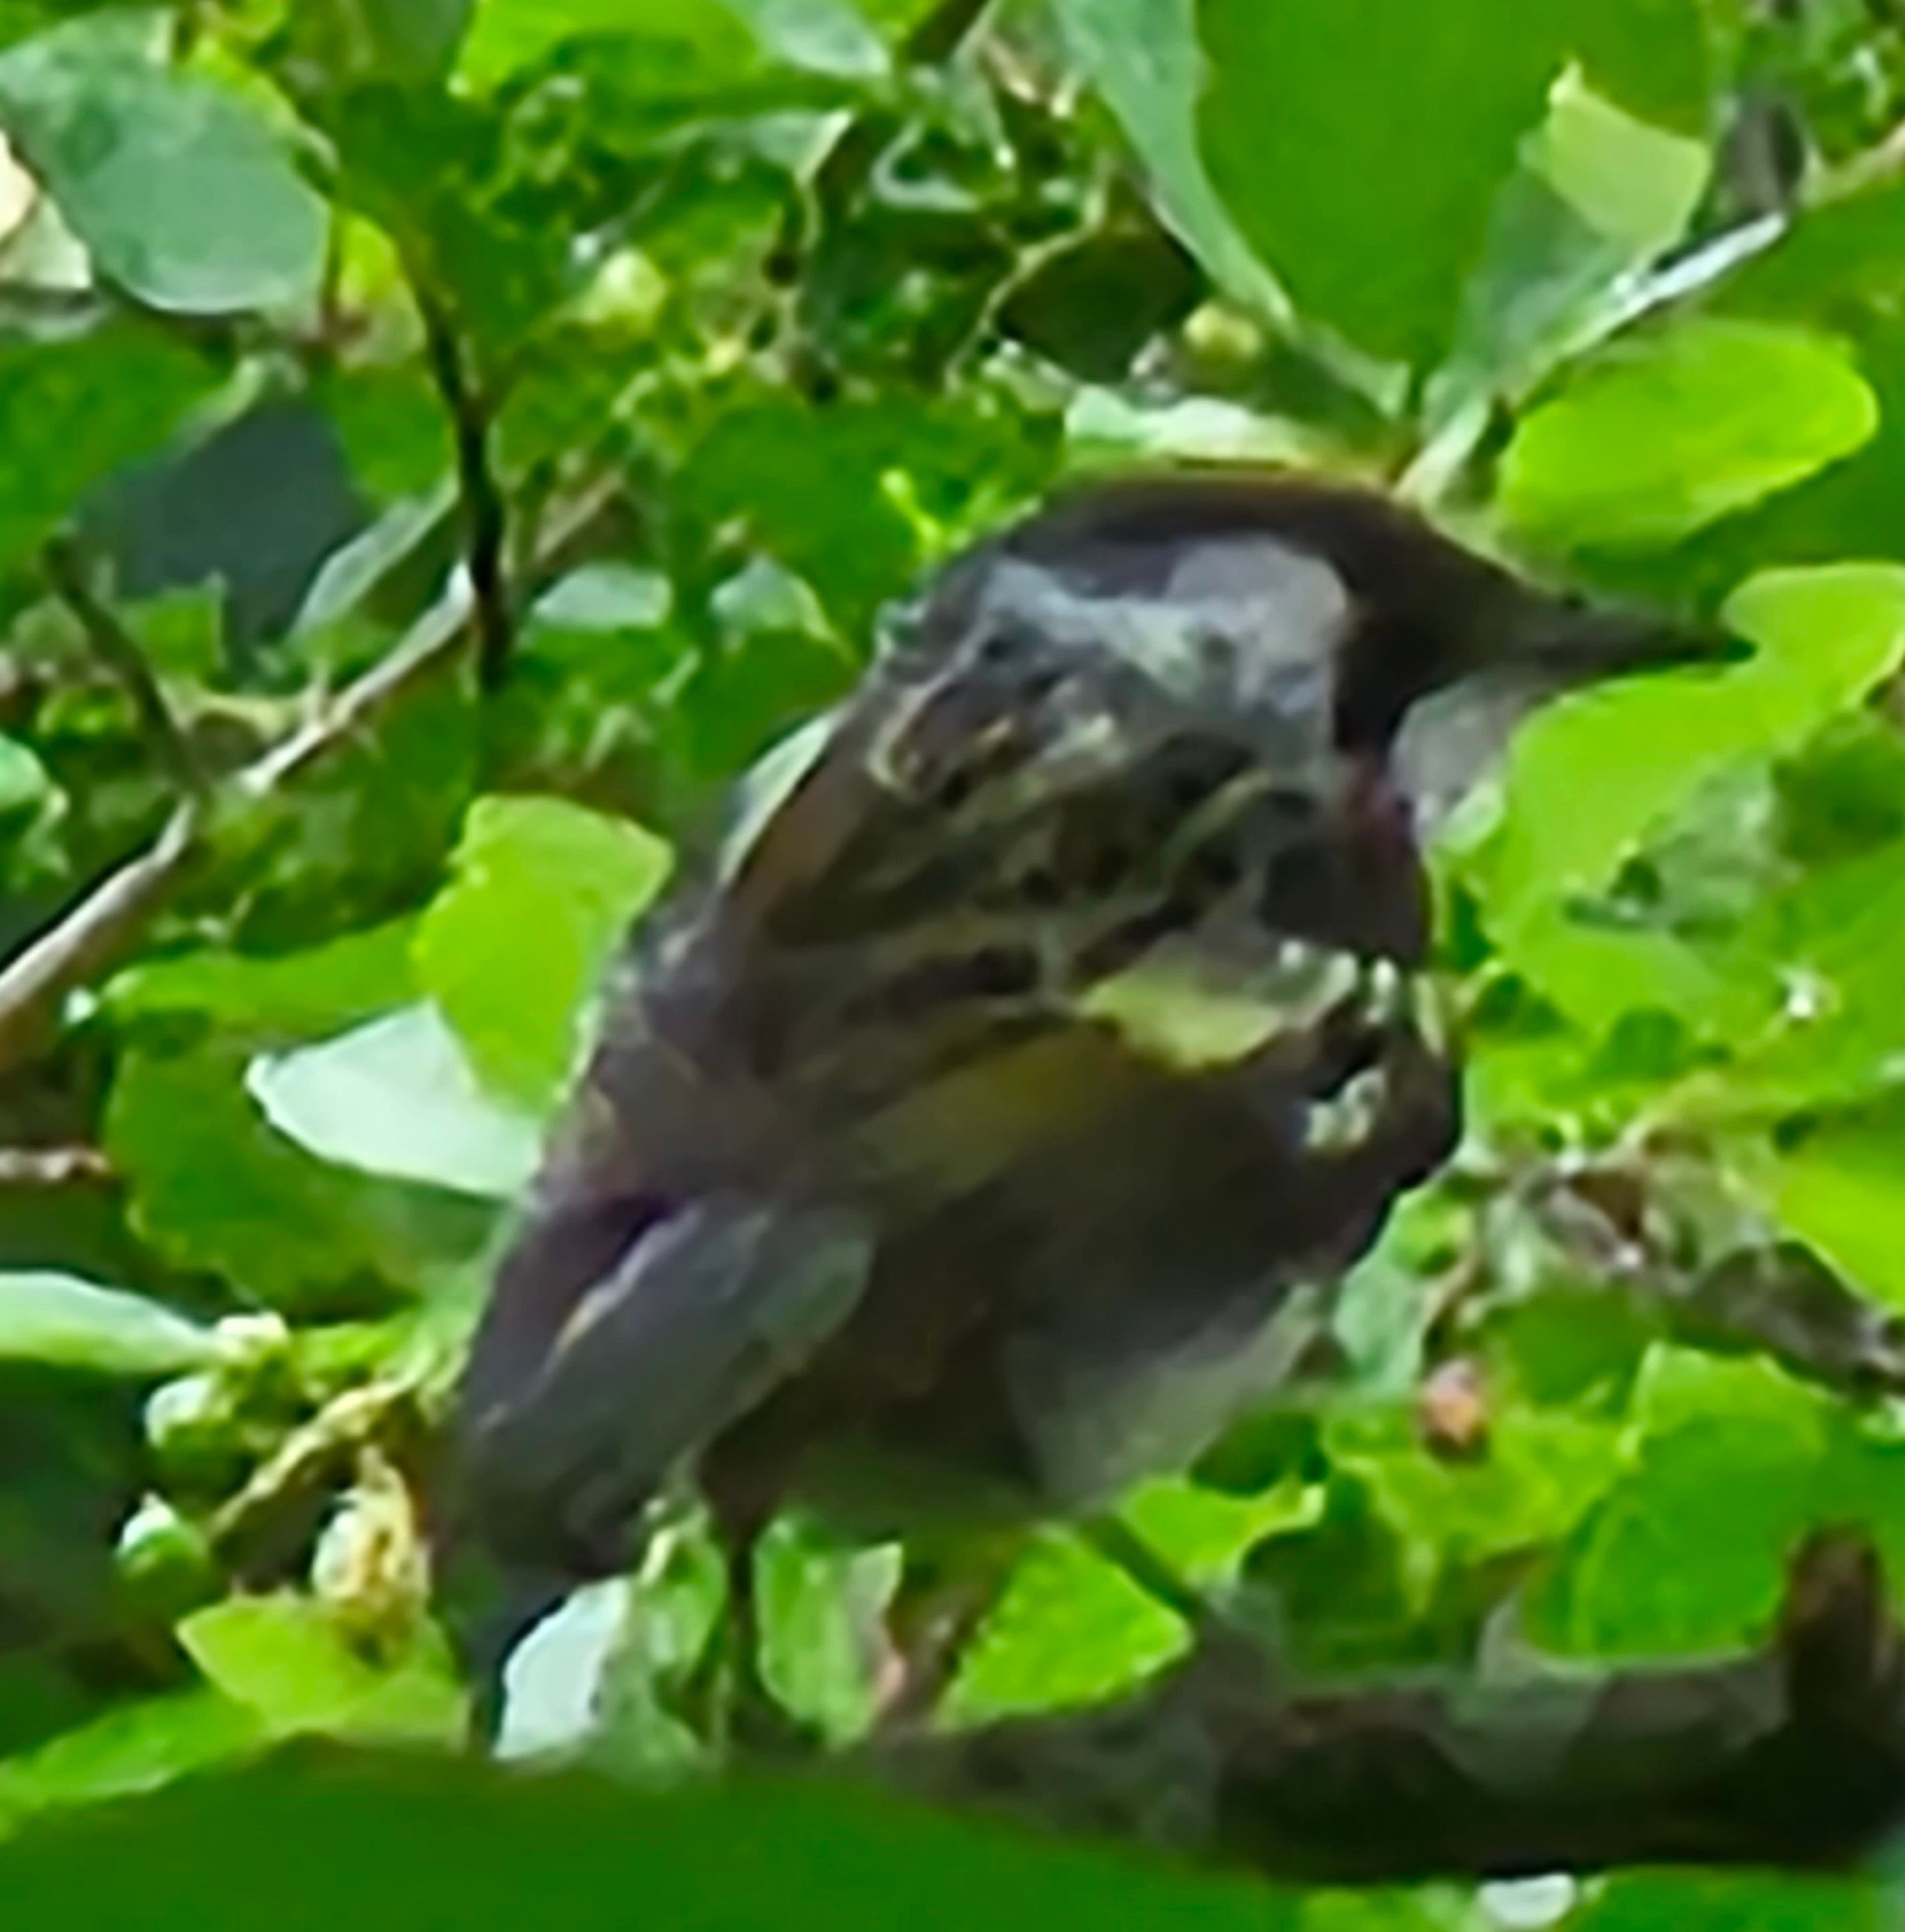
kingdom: Animalia
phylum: Chordata
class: Aves
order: Passeriformes
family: Parulidae
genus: Setophaga
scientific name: Setophaga pensylvanica
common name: Chestnut-sided warbler
